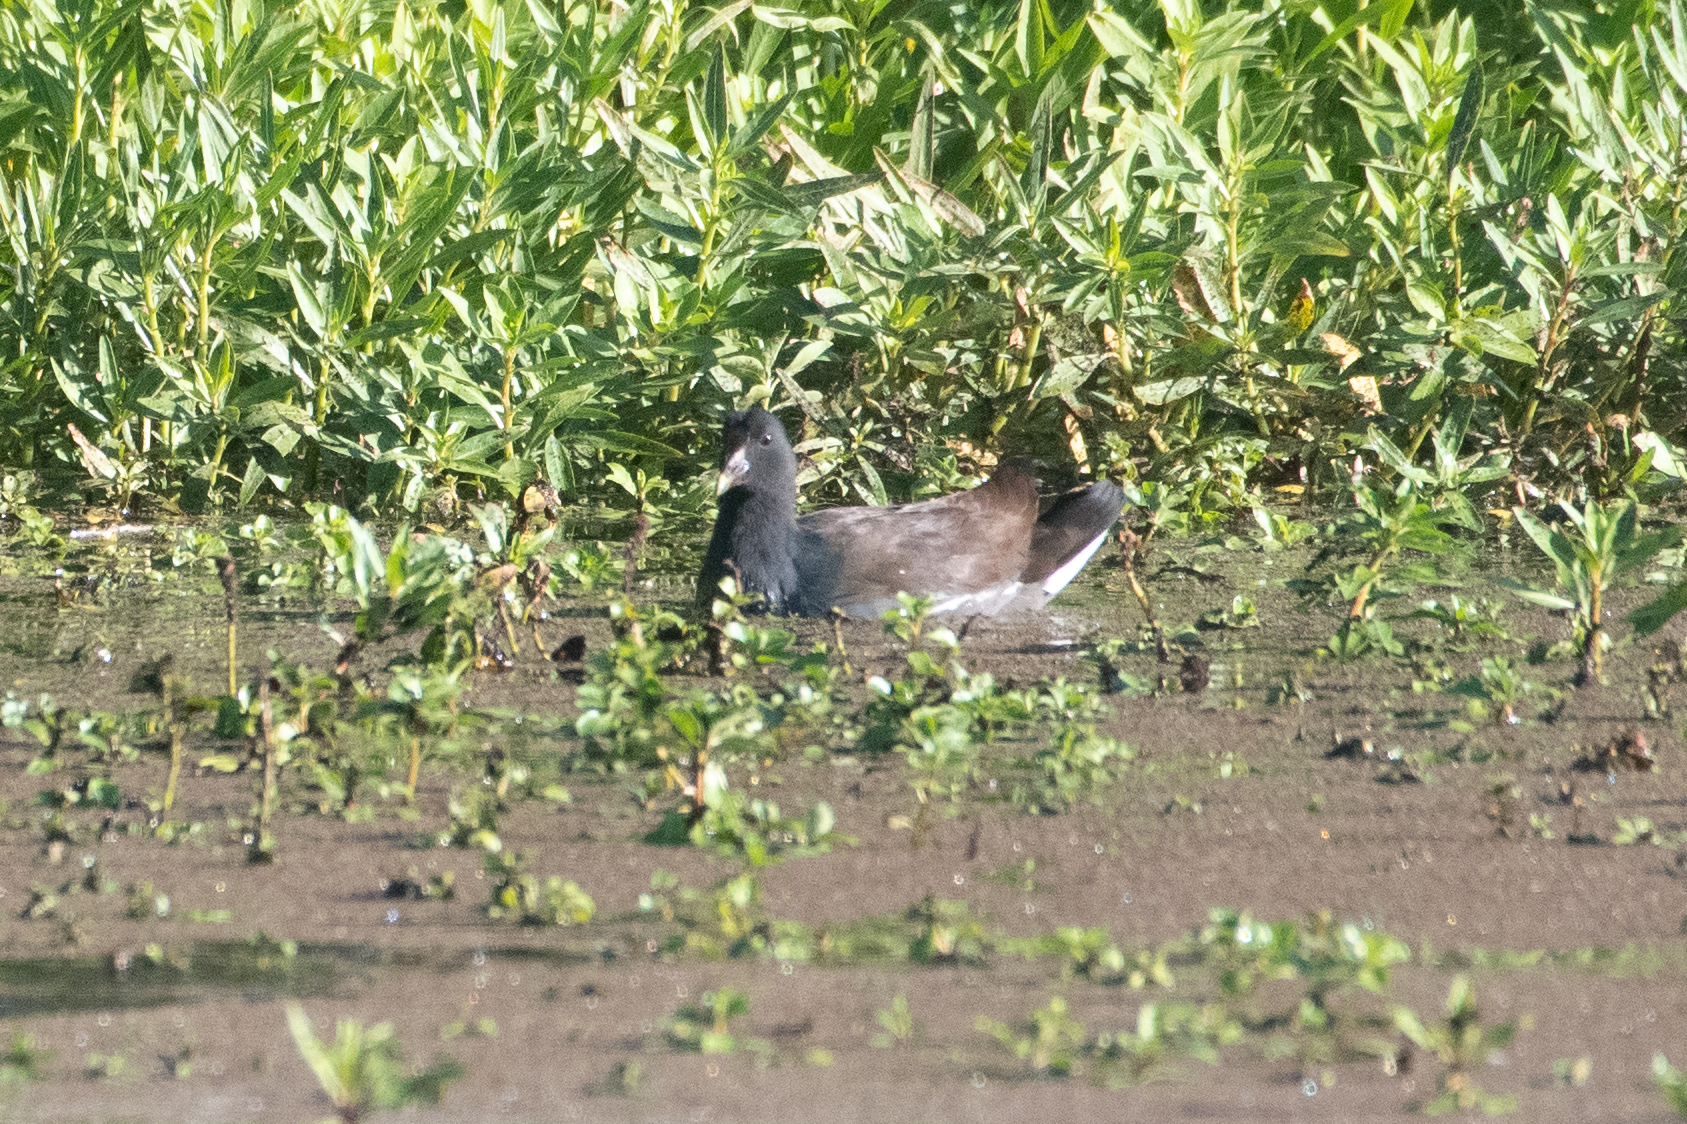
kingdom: Animalia
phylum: Chordata
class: Aves
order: Gruiformes
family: Rallidae
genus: Gallinula
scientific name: Gallinula chloropus
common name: Common moorhen
